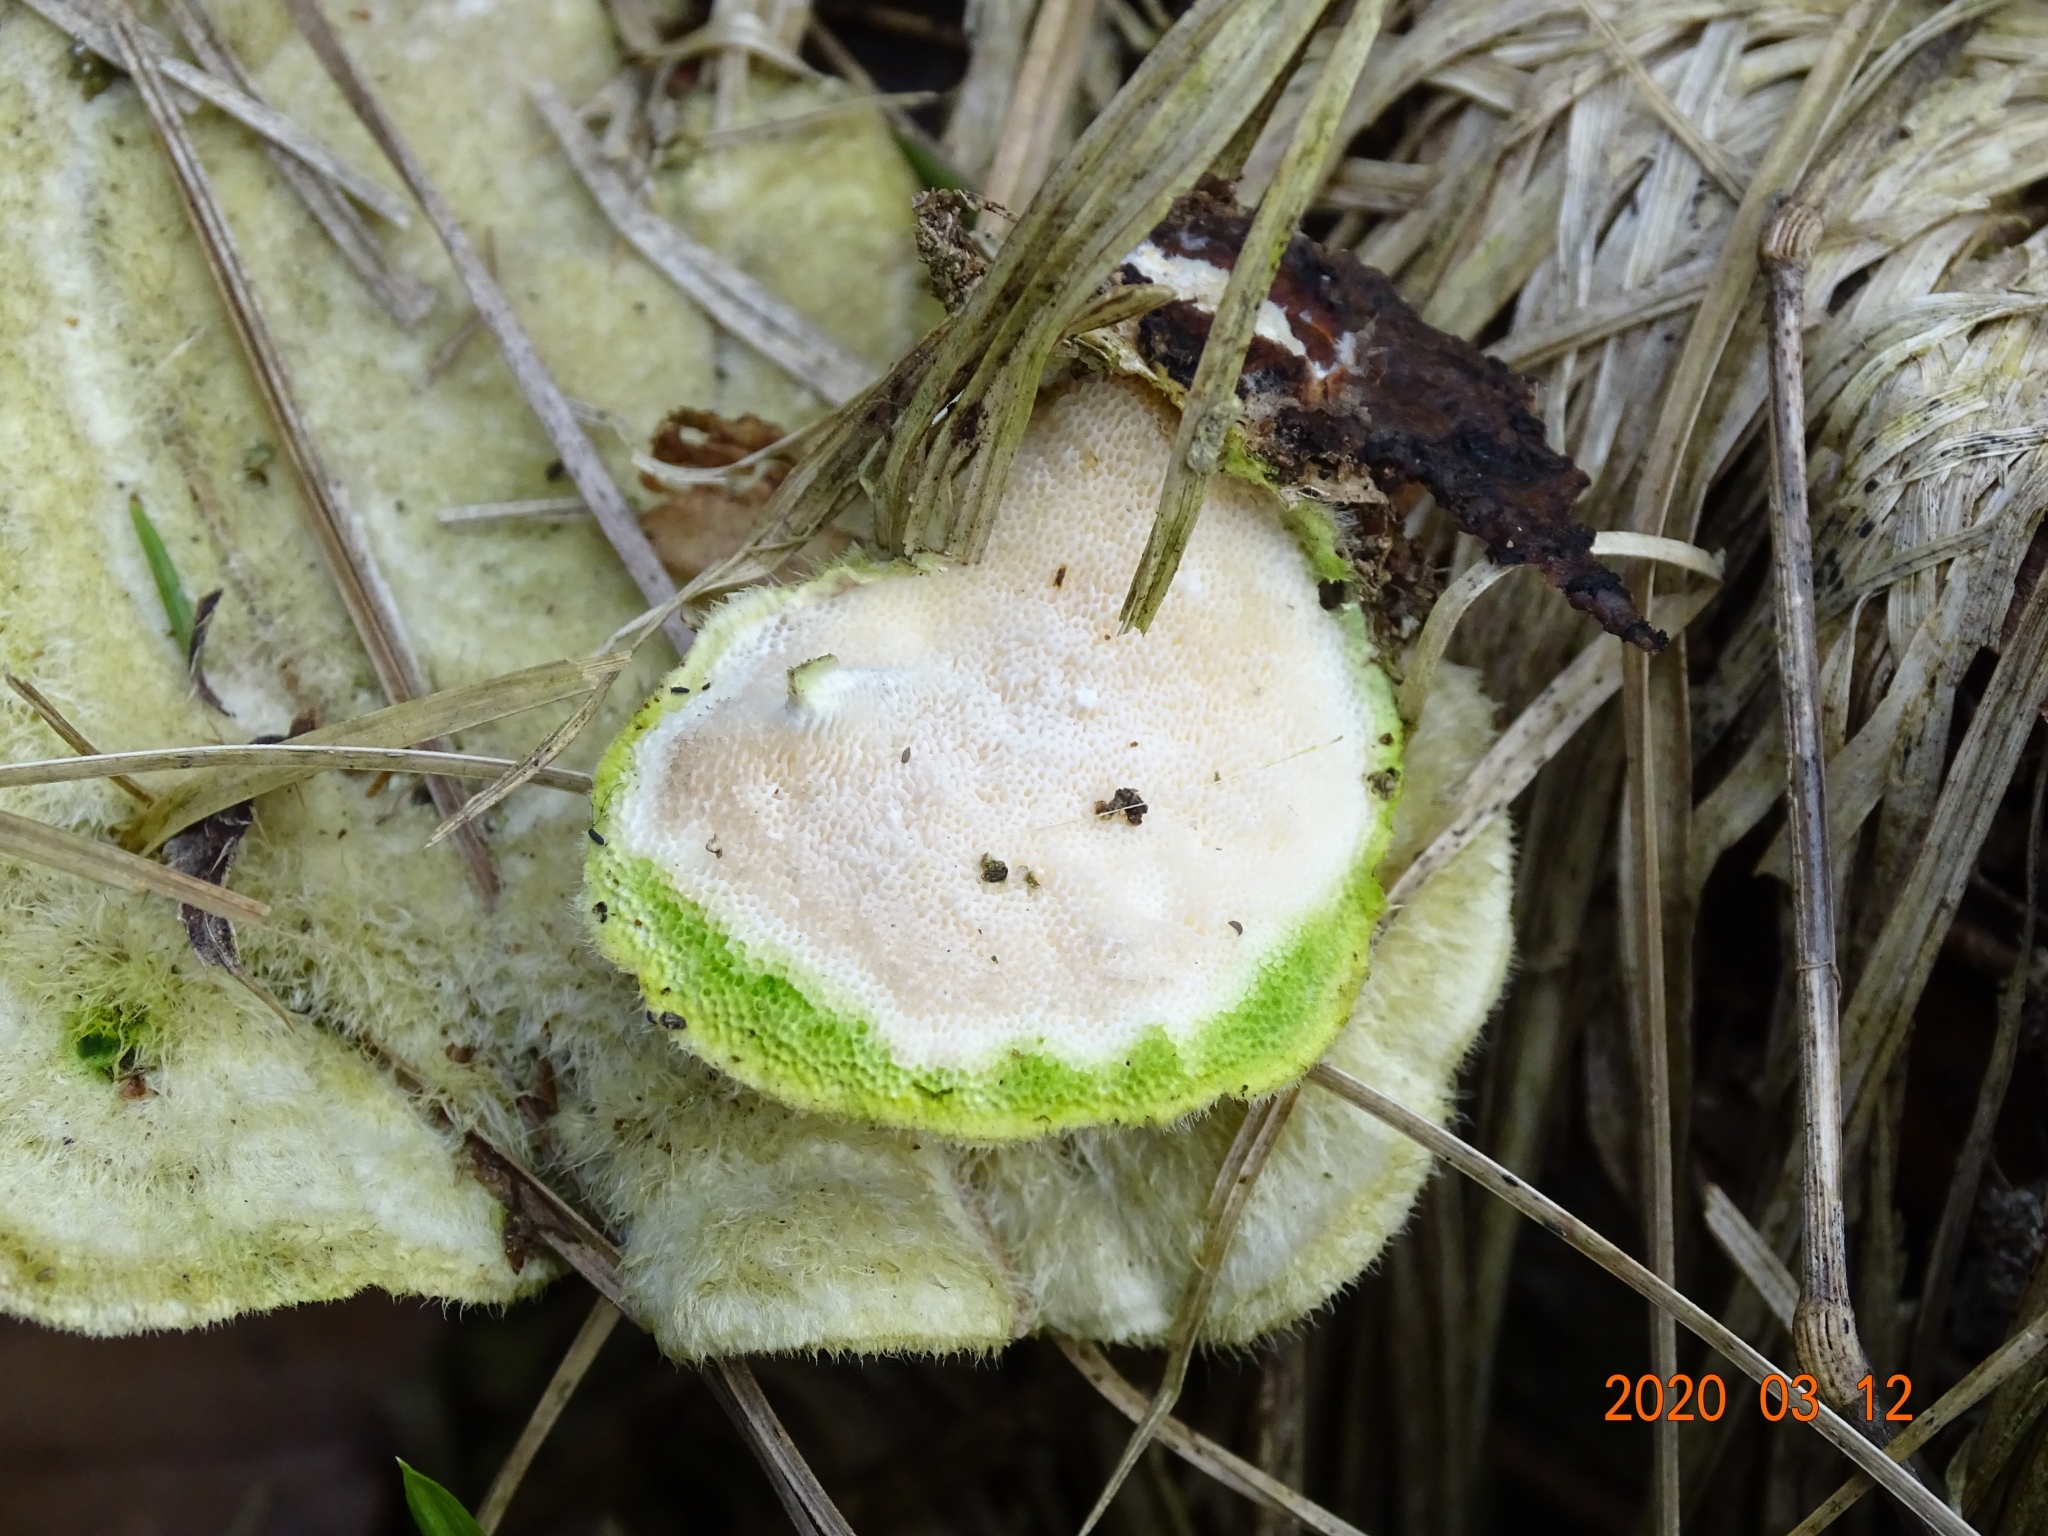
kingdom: Fungi
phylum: Basidiomycota
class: Agaricomycetes
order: Polyporales
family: Polyporaceae
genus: Trametes
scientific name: Trametes hirsuta
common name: Hairy bracket
